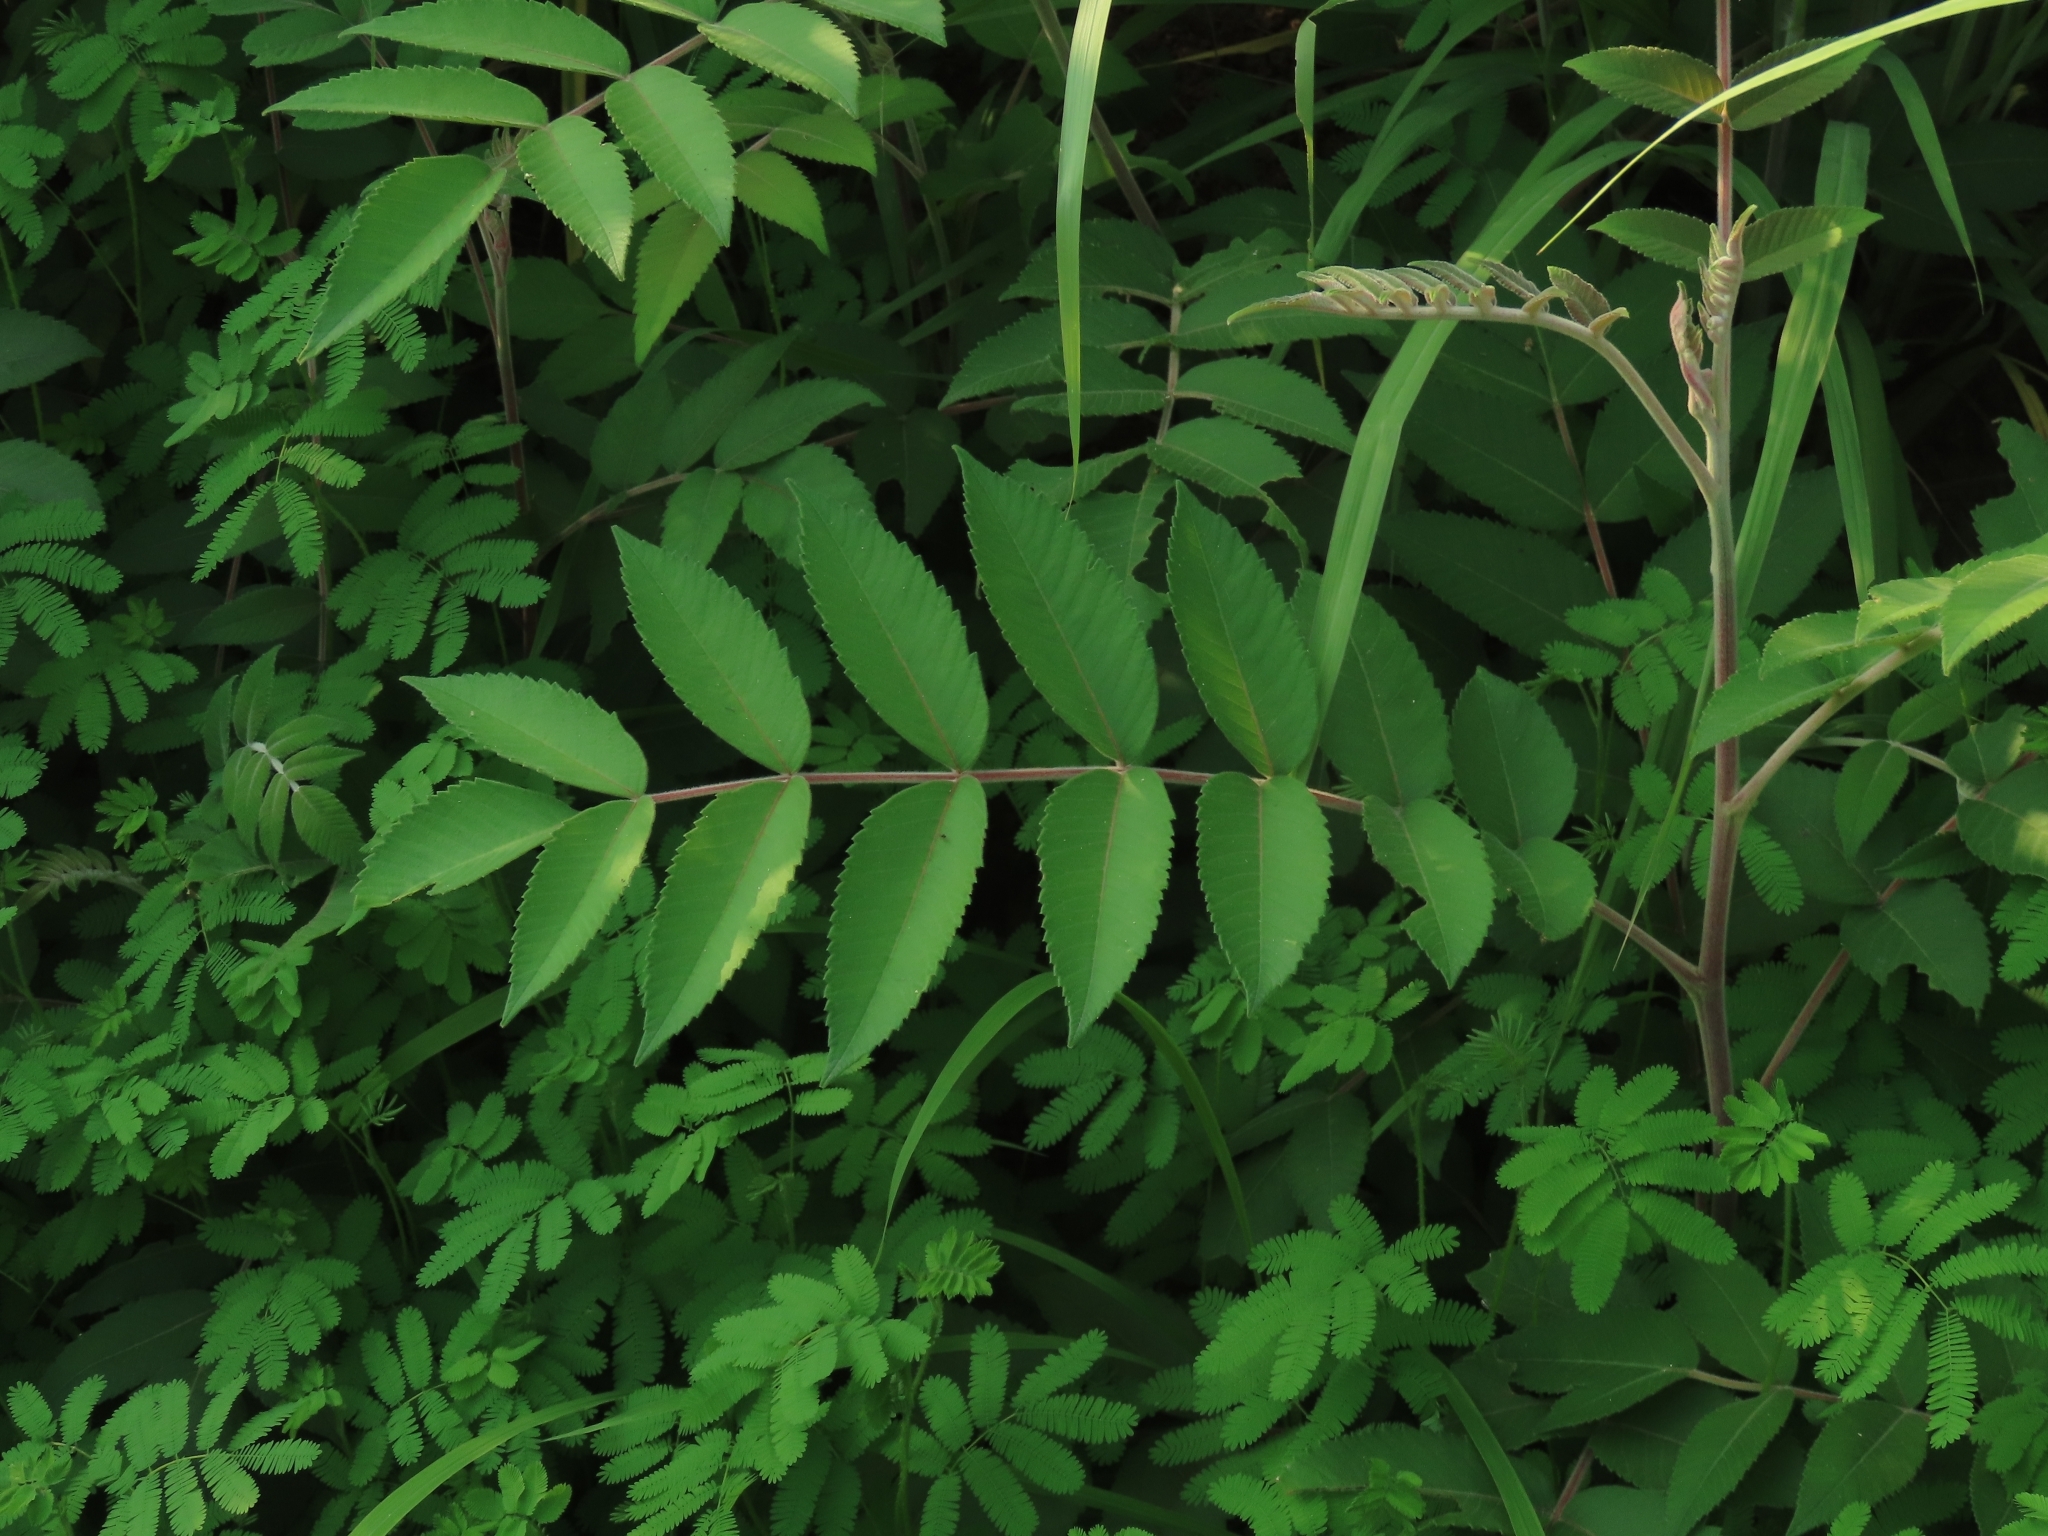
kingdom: Plantae
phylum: Tracheophyta
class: Magnoliopsida
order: Sapindales
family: Anacardiaceae
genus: Rhus
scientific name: Rhus chinensis
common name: Chinese gall
